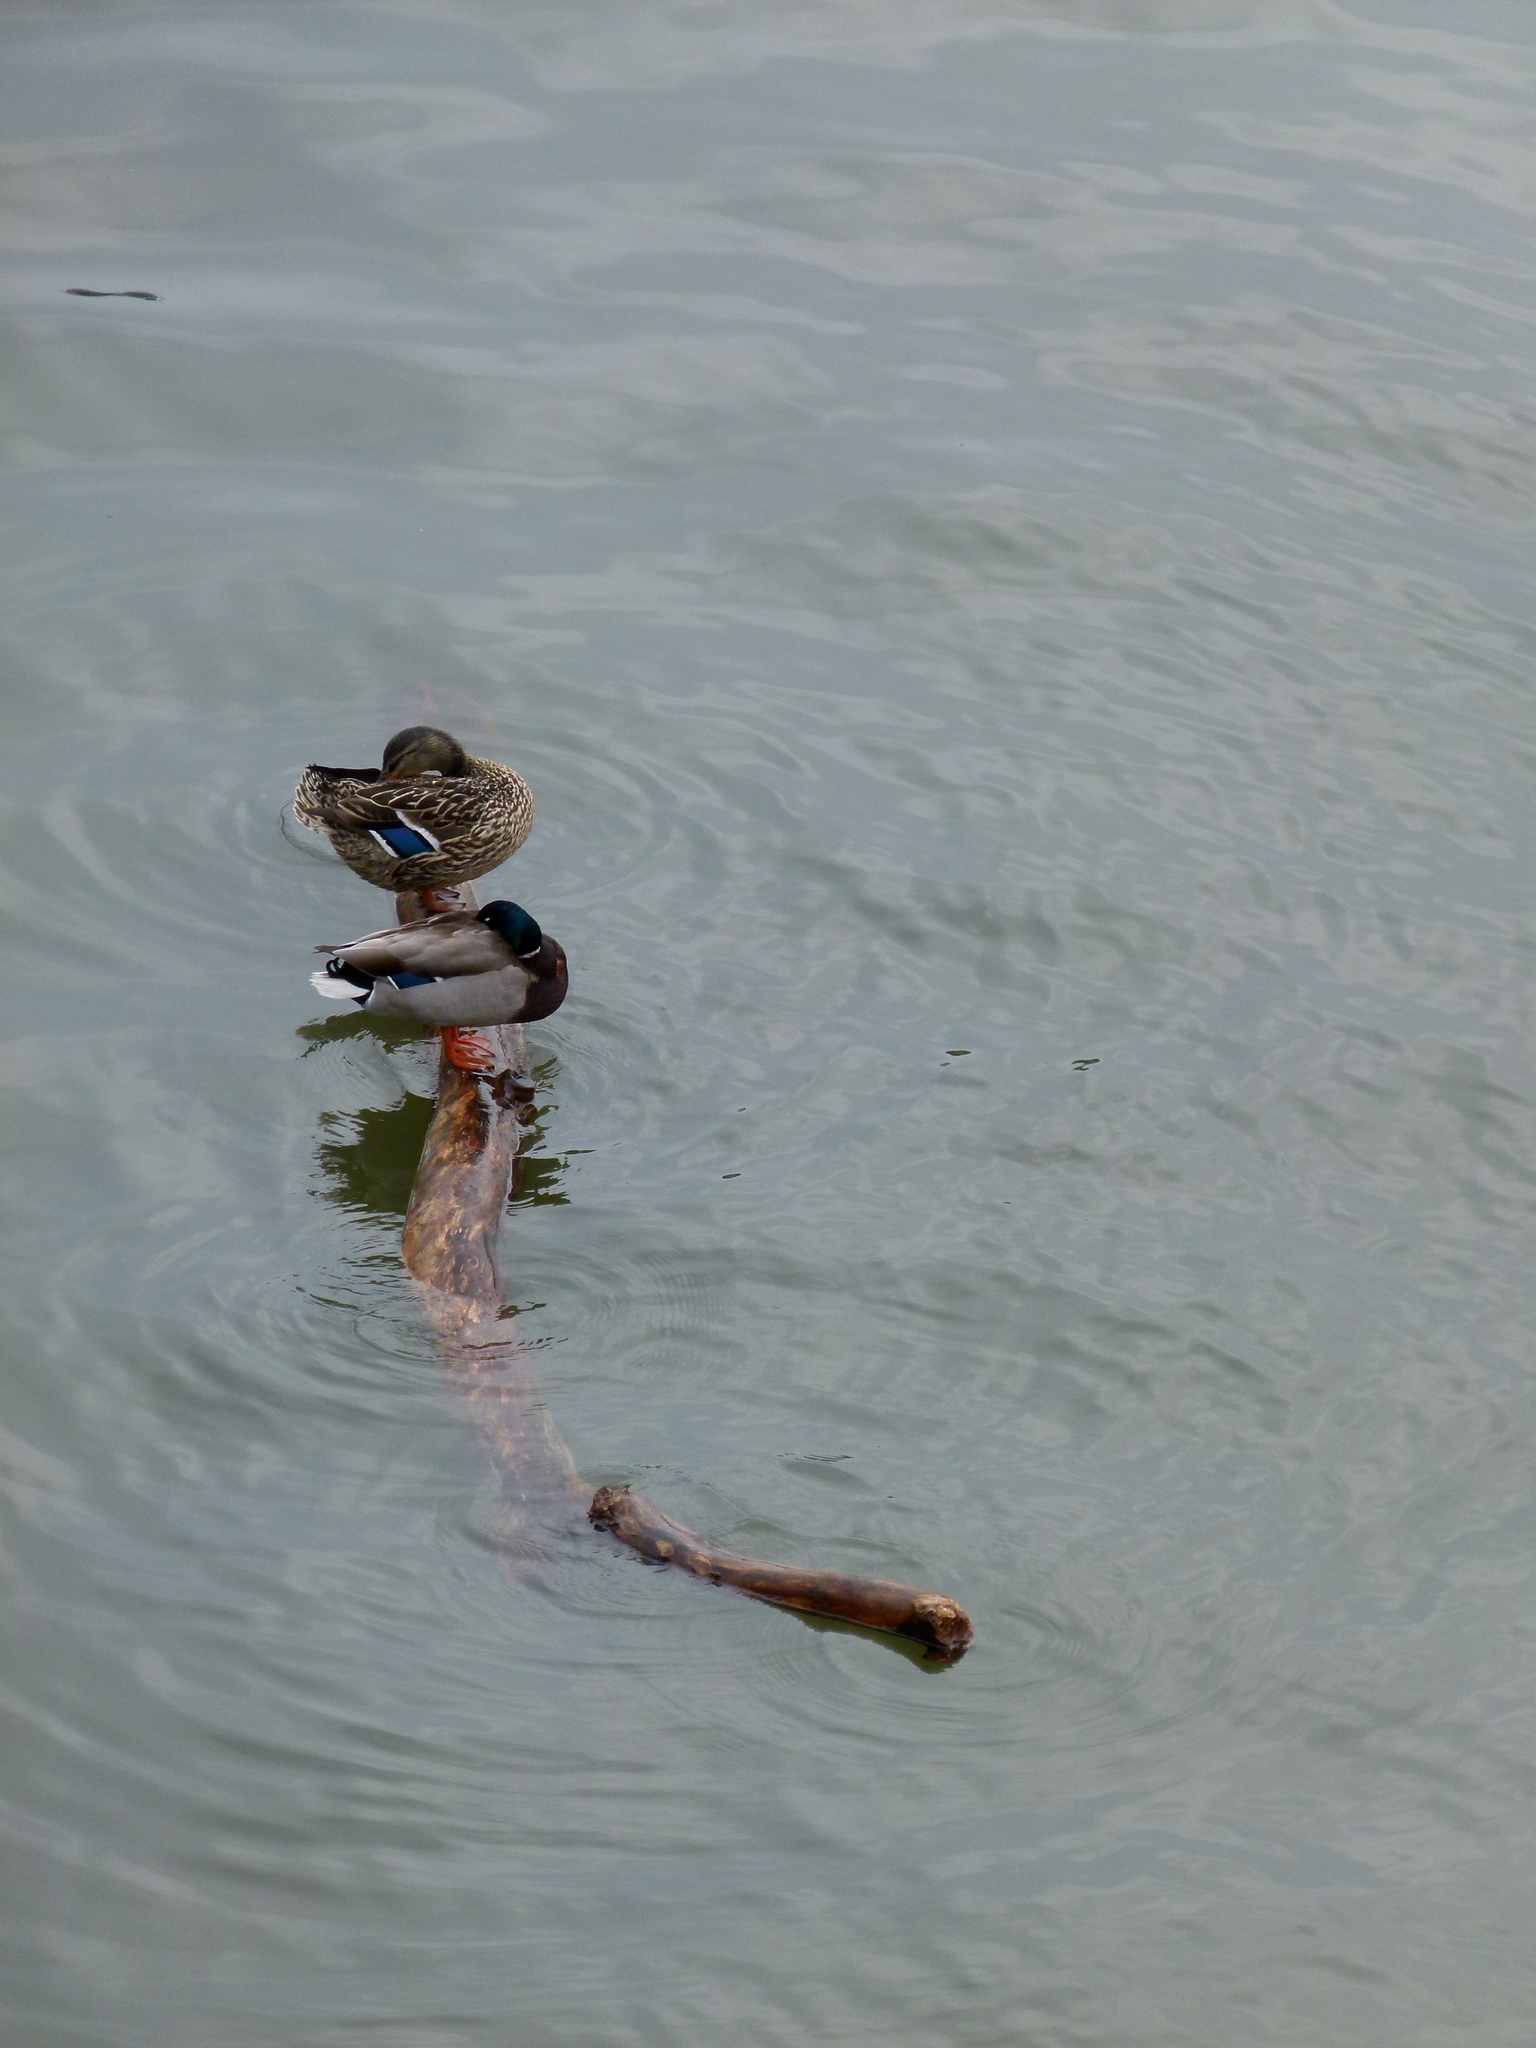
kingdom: Animalia
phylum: Chordata
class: Aves
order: Anseriformes
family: Anatidae
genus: Anas
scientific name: Anas platyrhynchos
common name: Mallard
